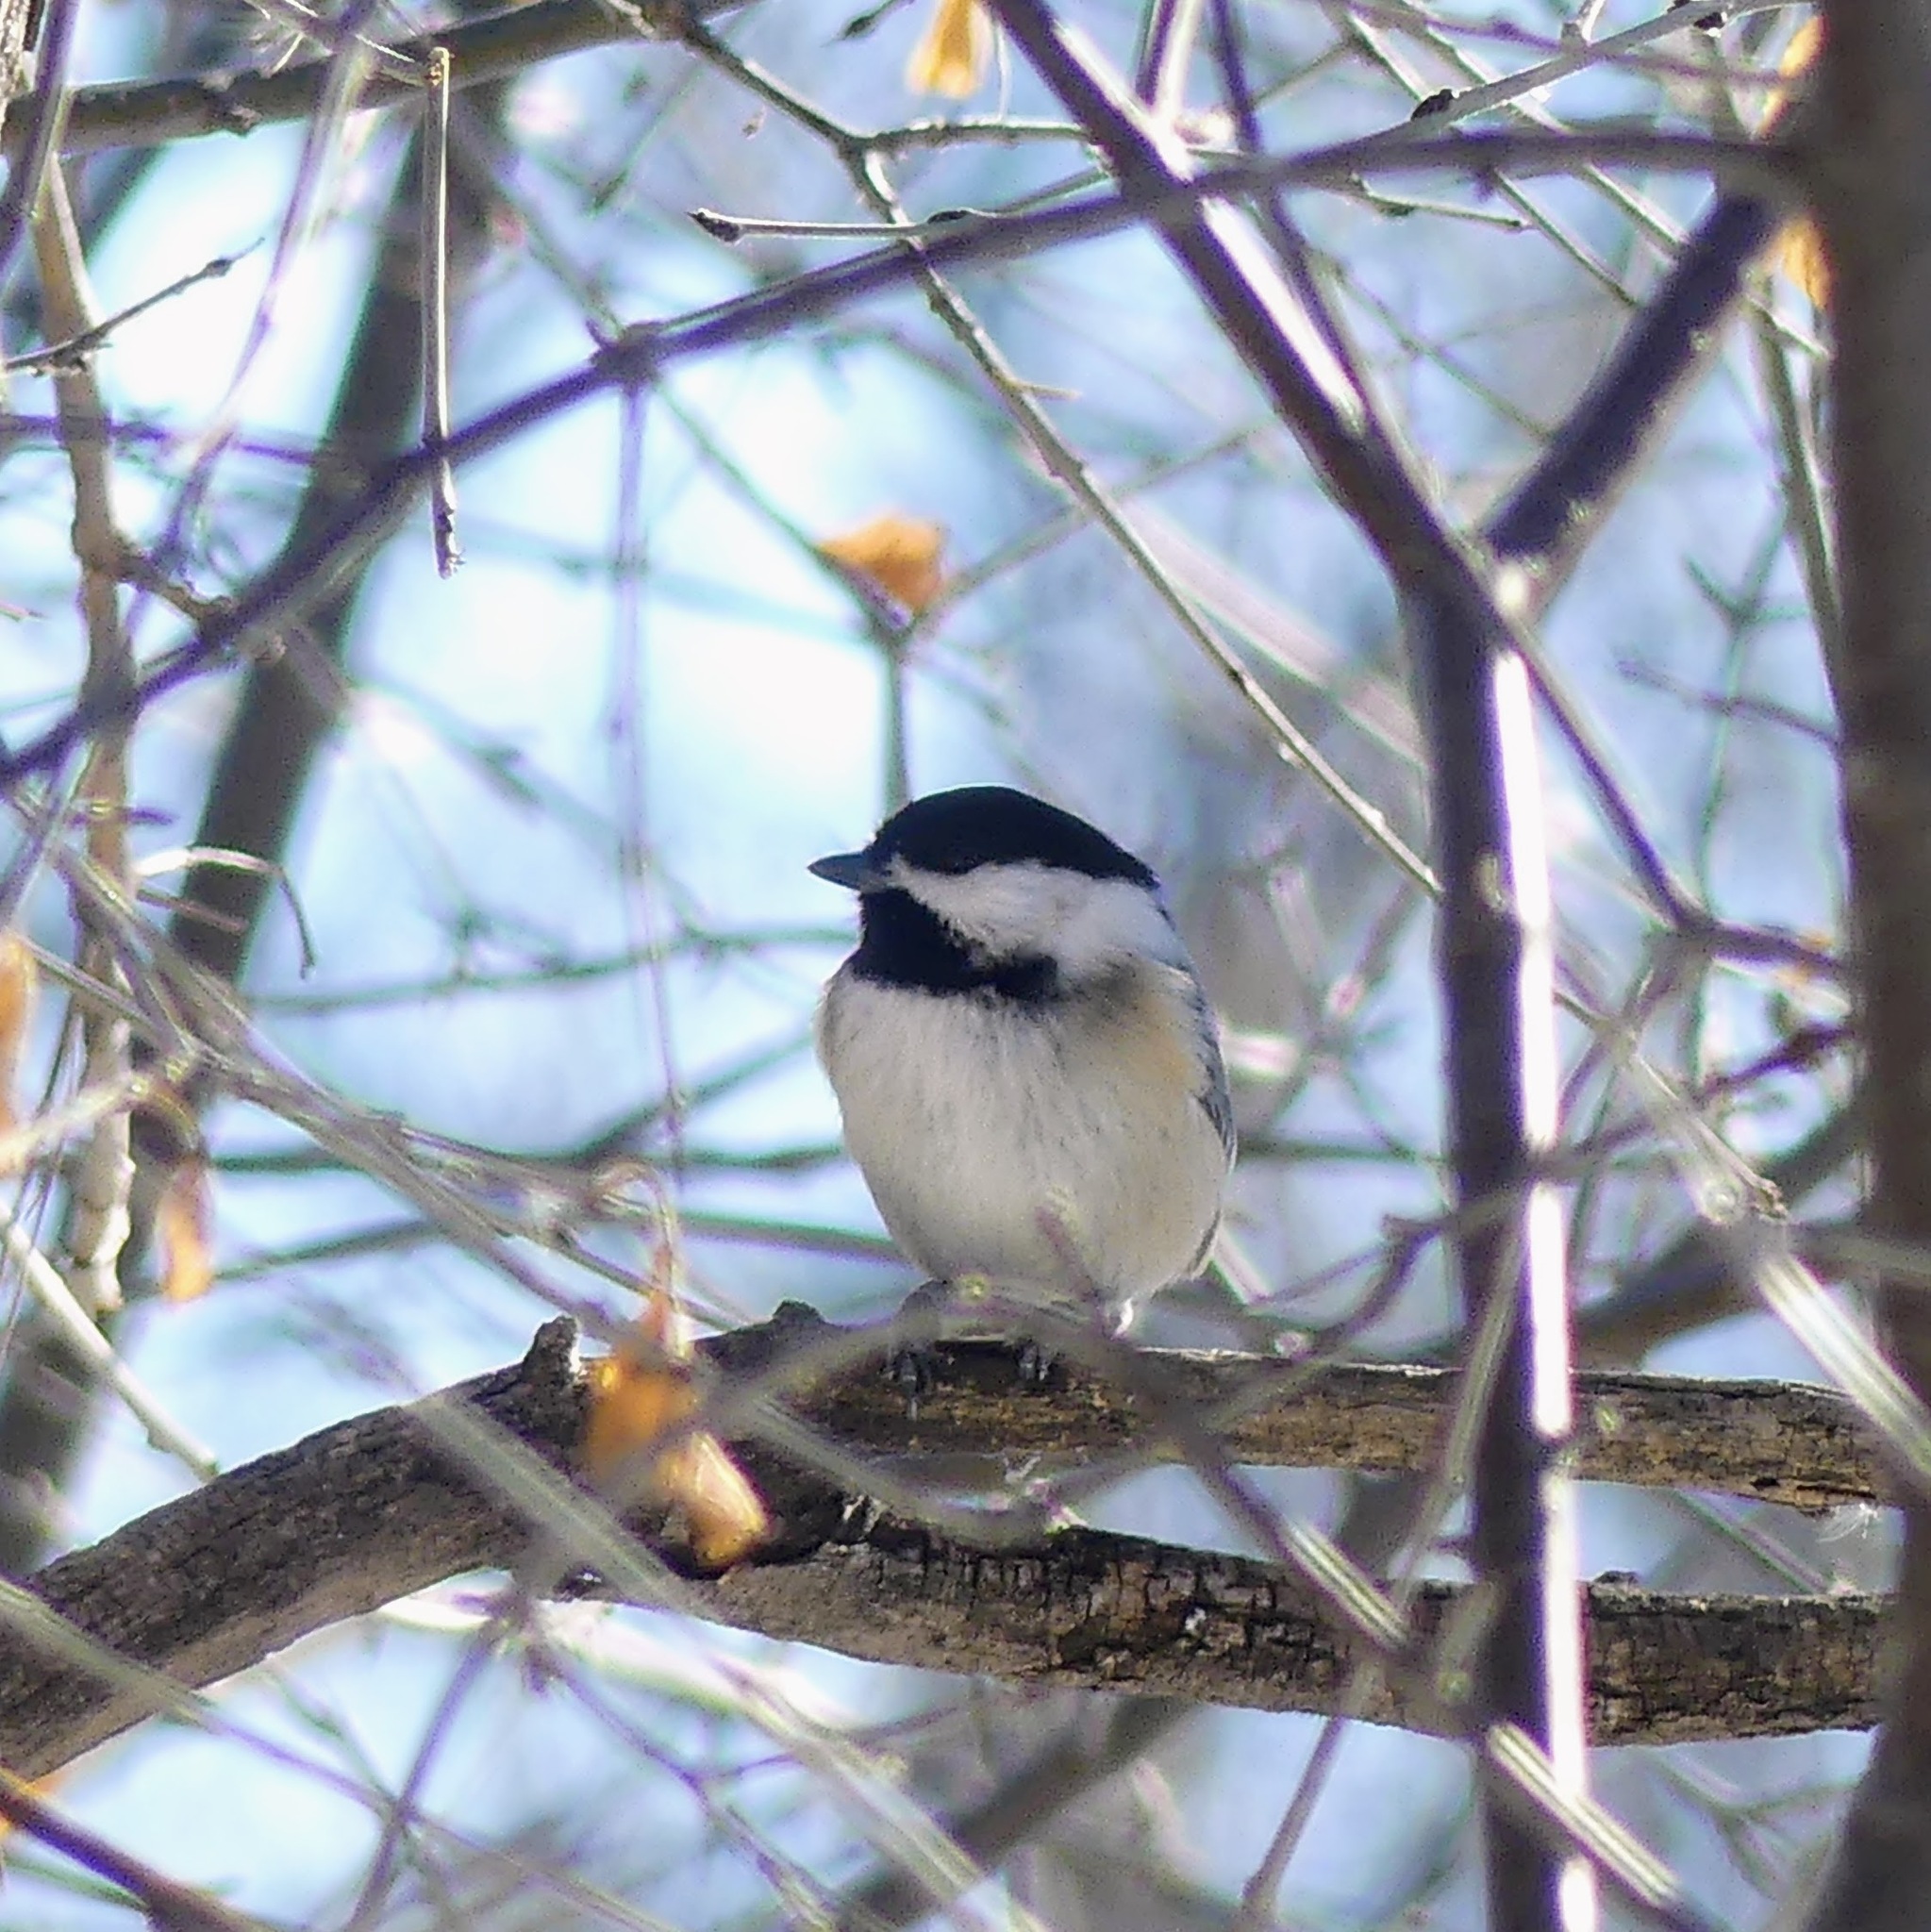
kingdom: Animalia
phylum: Chordata
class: Aves
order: Passeriformes
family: Paridae
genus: Poecile
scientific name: Poecile atricapillus
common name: Black-capped chickadee
